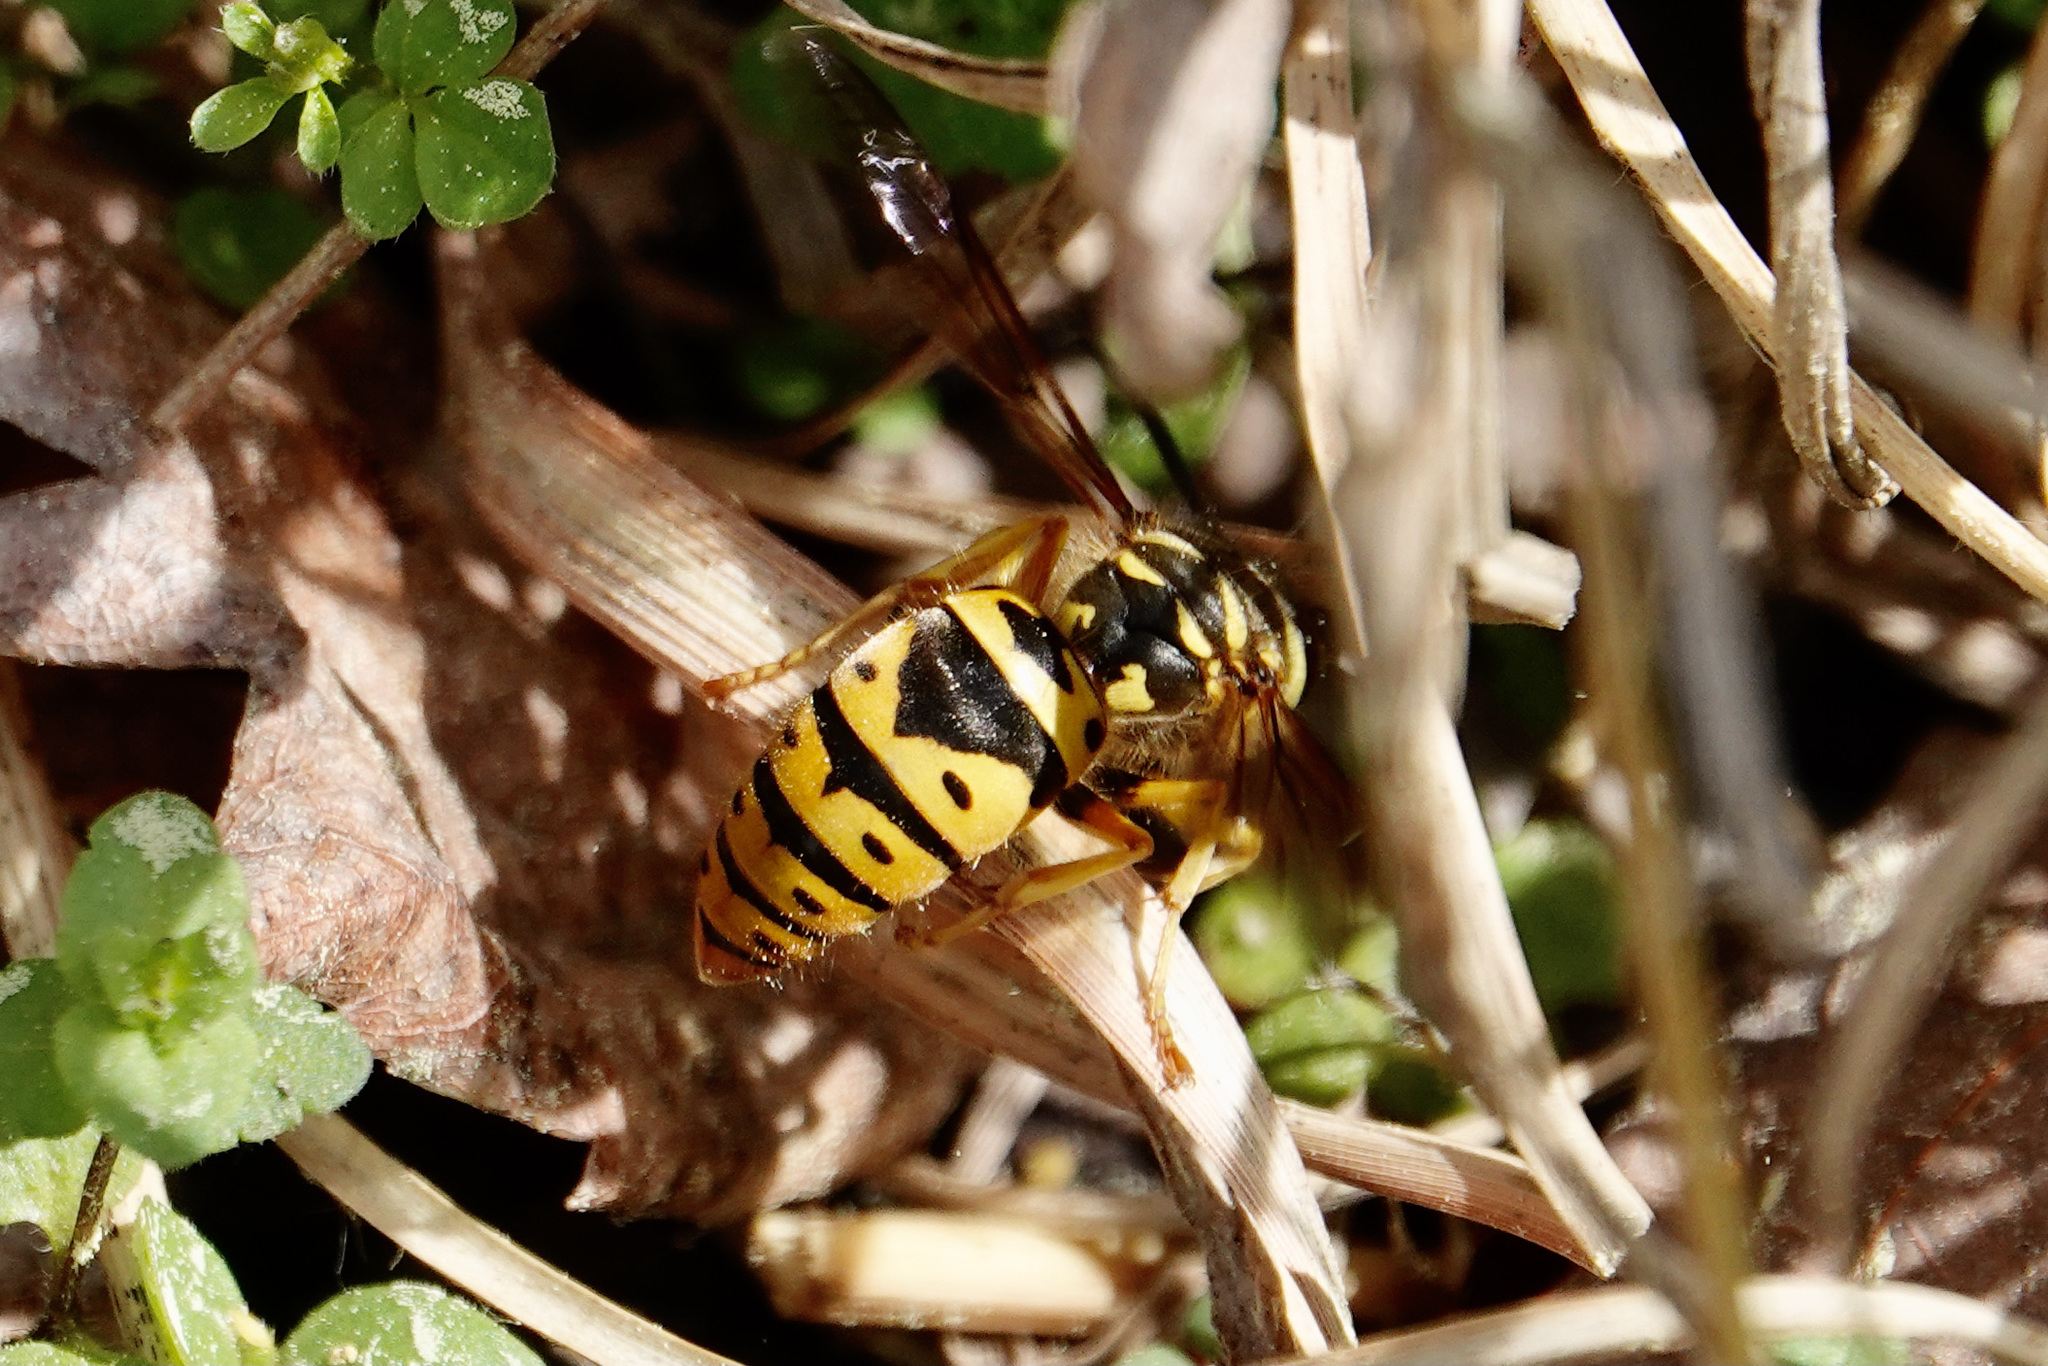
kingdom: Animalia
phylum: Arthropoda
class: Insecta
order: Hymenoptera
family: Vespidae
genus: Vespula
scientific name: Vespula maculifrons
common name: Eastern yellowjacket
